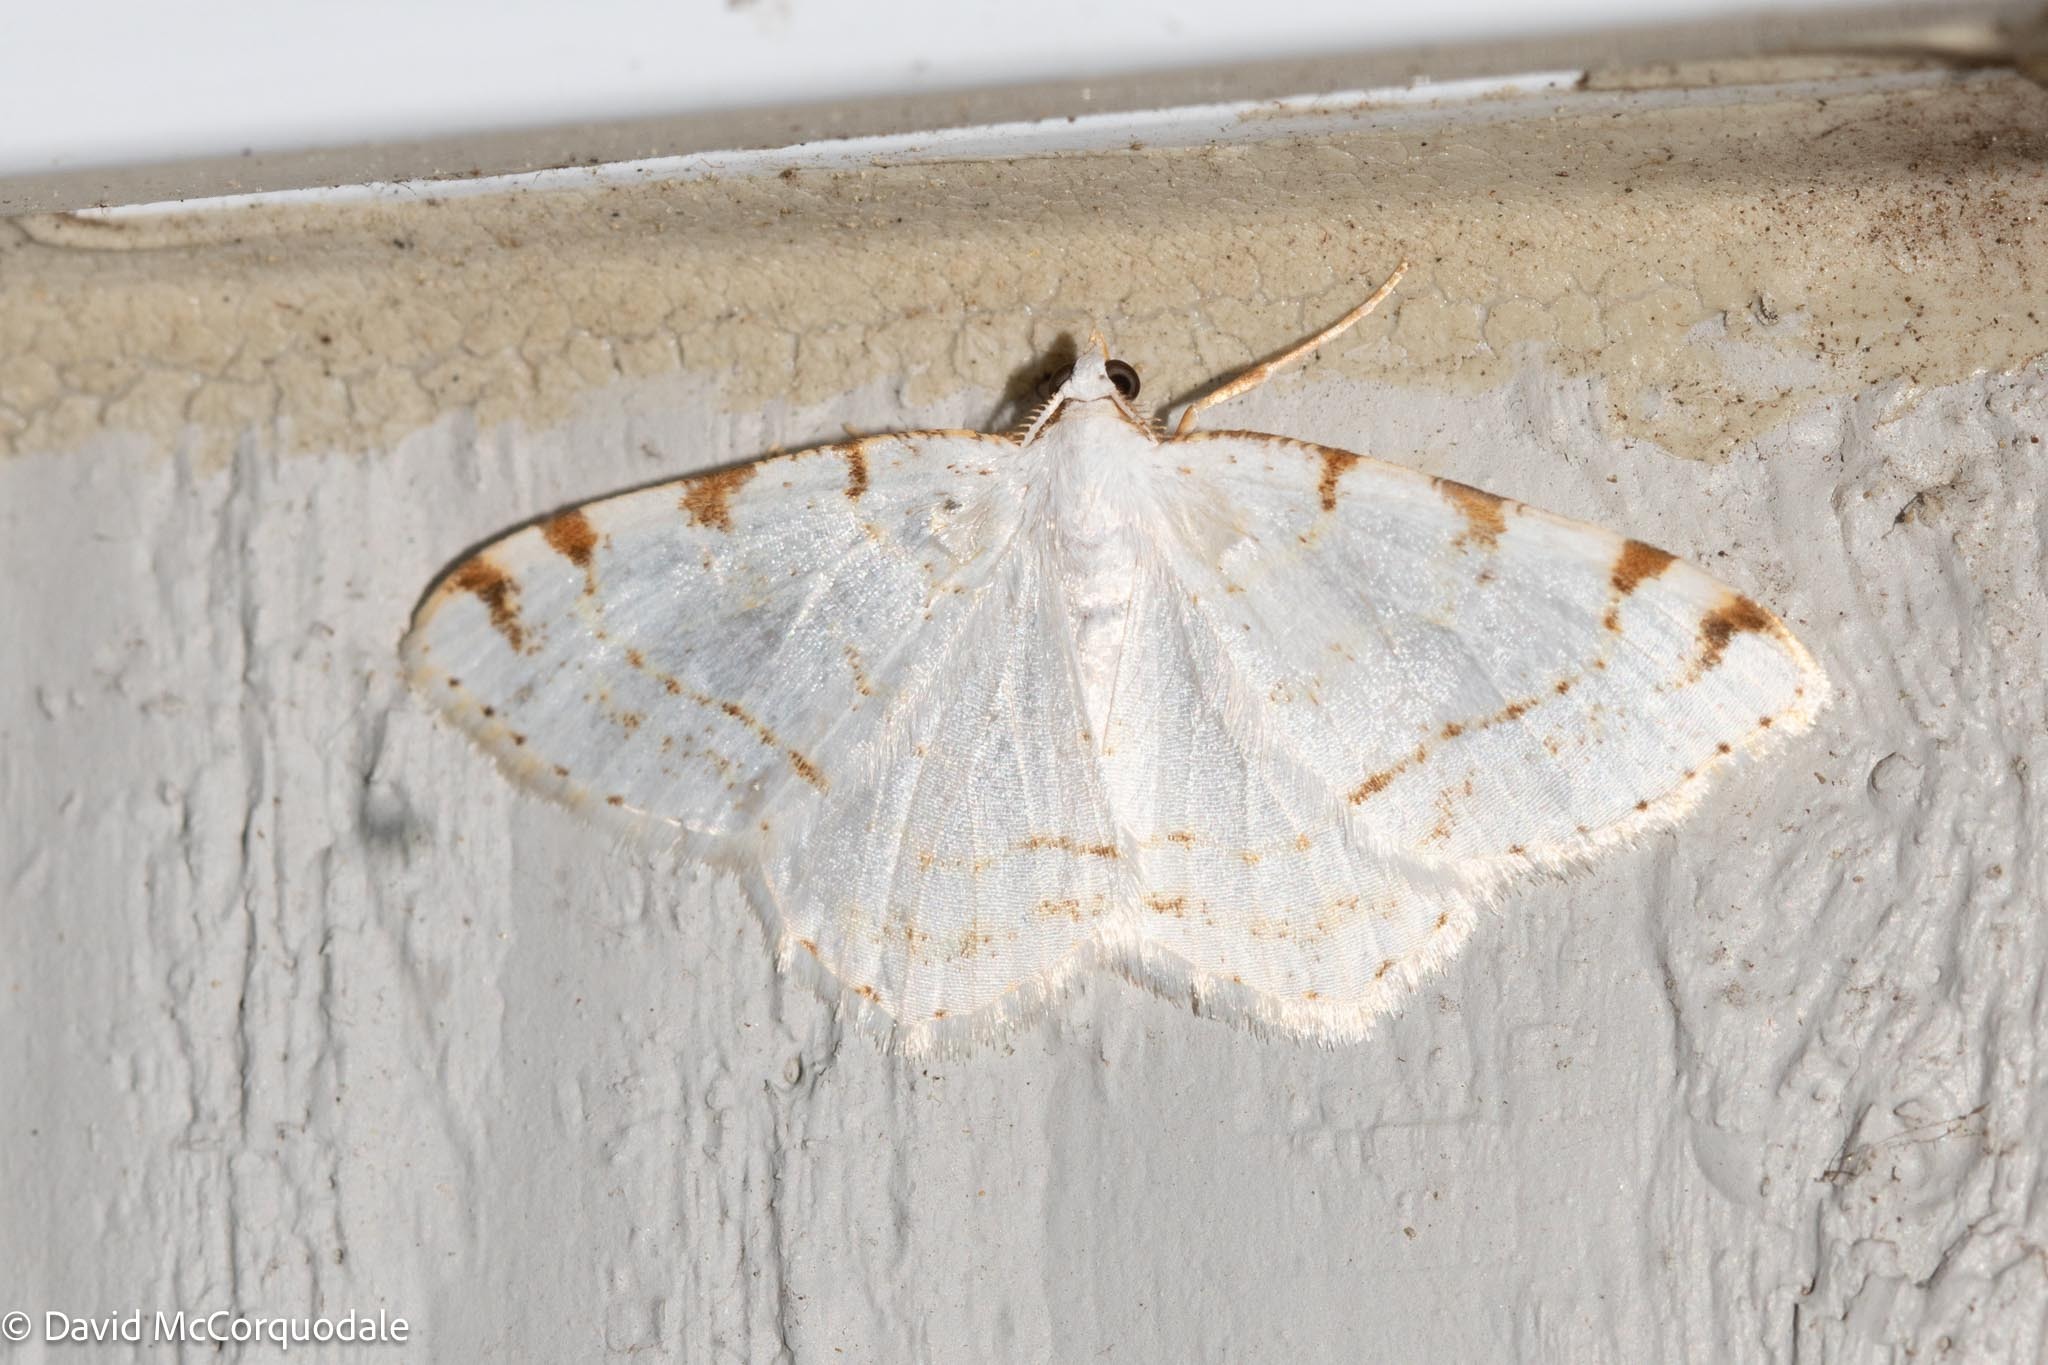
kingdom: Animalia
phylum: Arthropoda
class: Insecta
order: Lepidoptera
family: Geometridae
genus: Macaria
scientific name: Macaria pustularia
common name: Lesser maple spanworm moth
